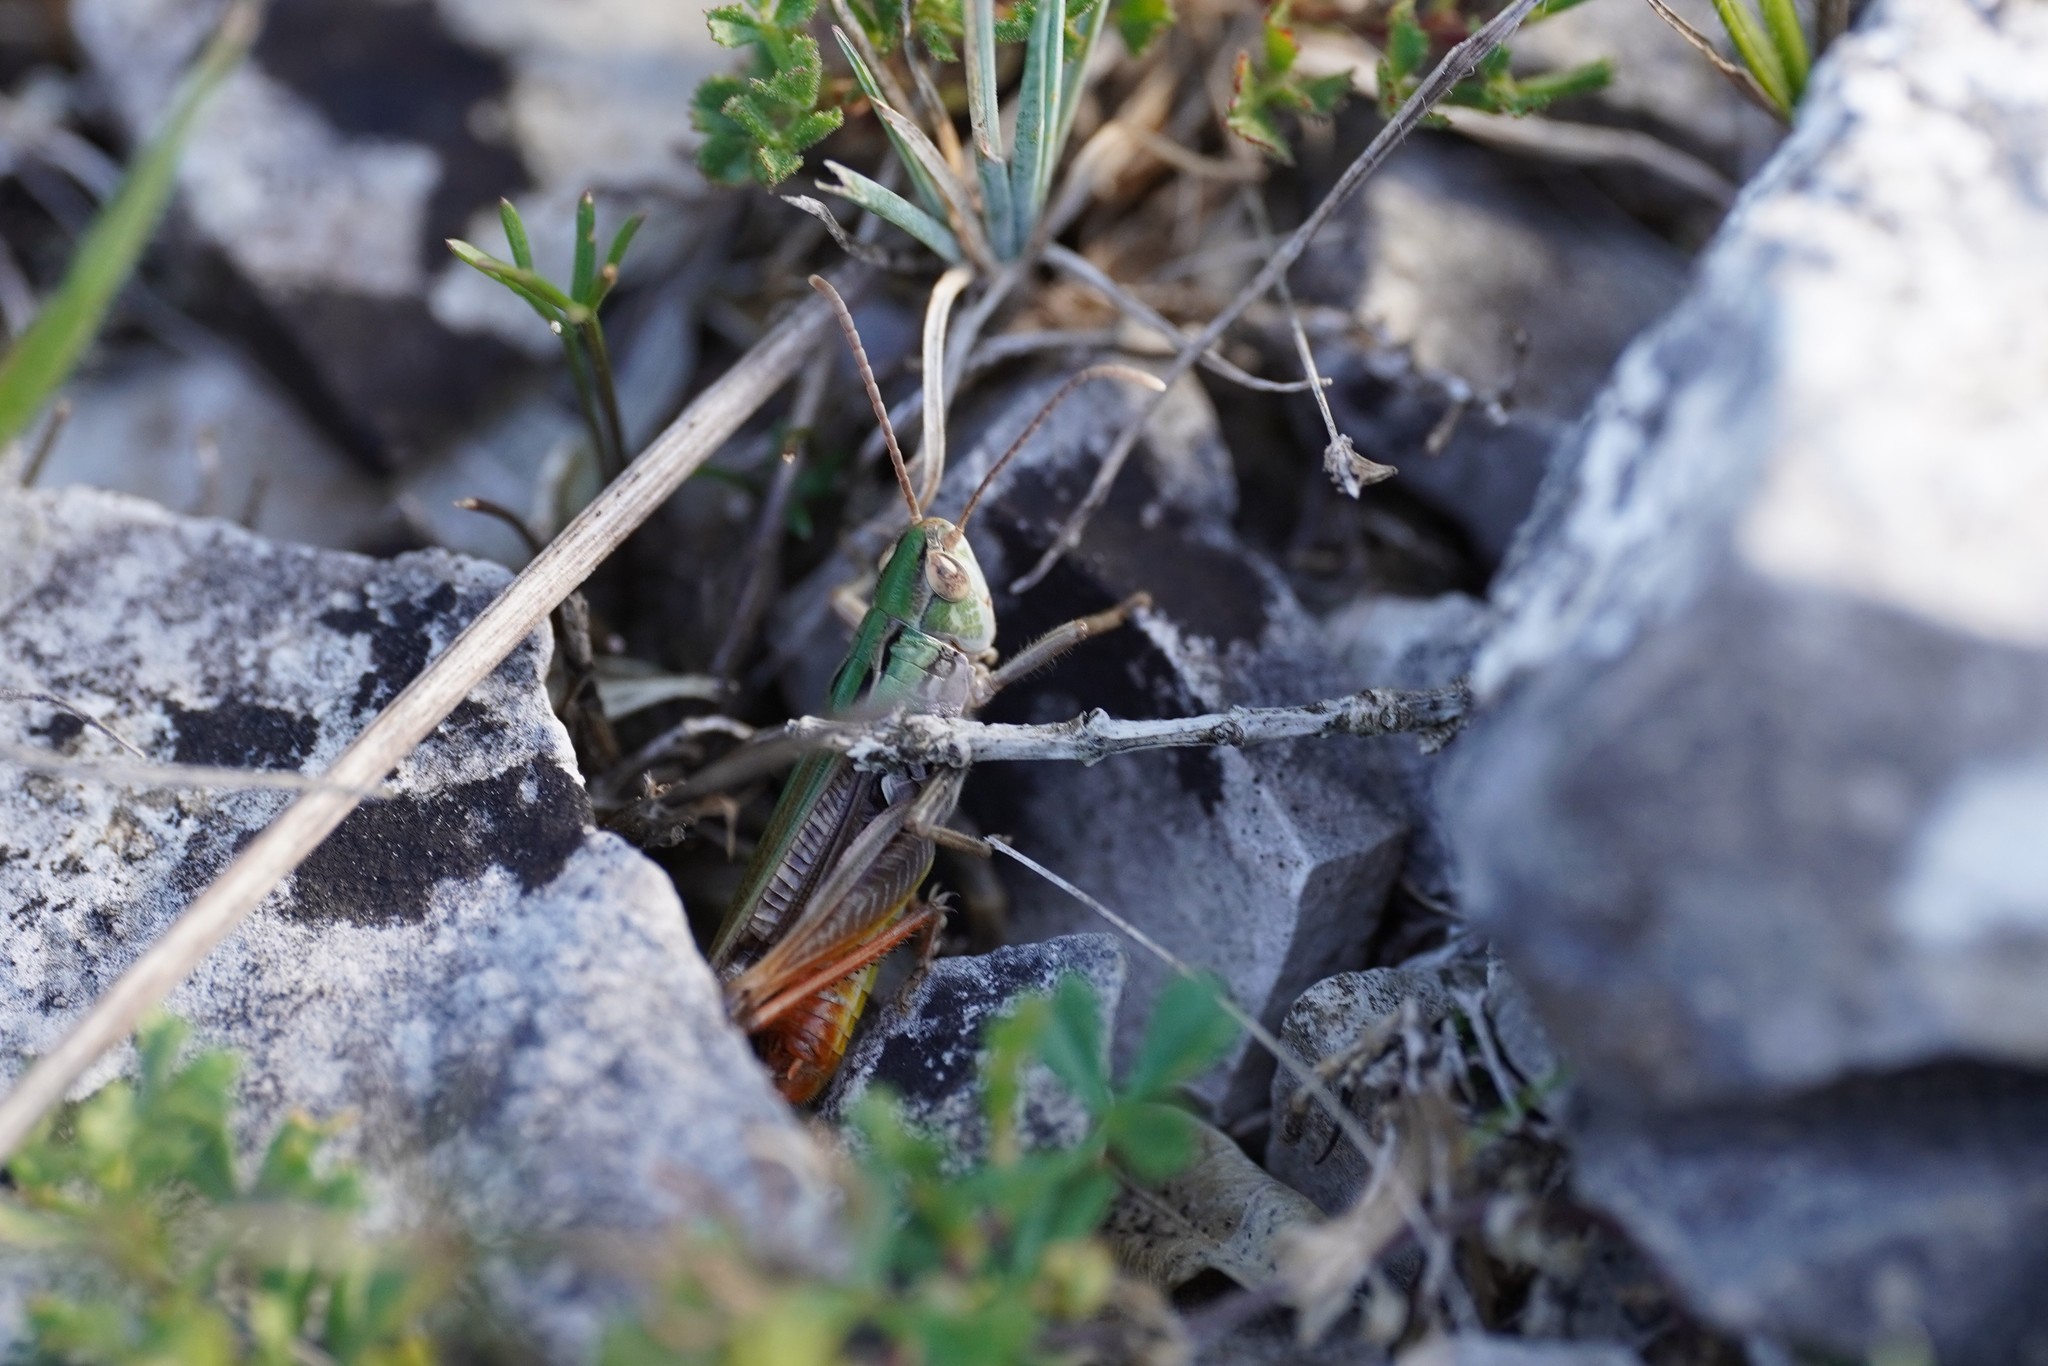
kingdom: Animalia
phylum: Arthropoda
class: Insecta
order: Orthoptera
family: Acrididae
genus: Stenobothrus
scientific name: Stenobothrus nigromaculatus
